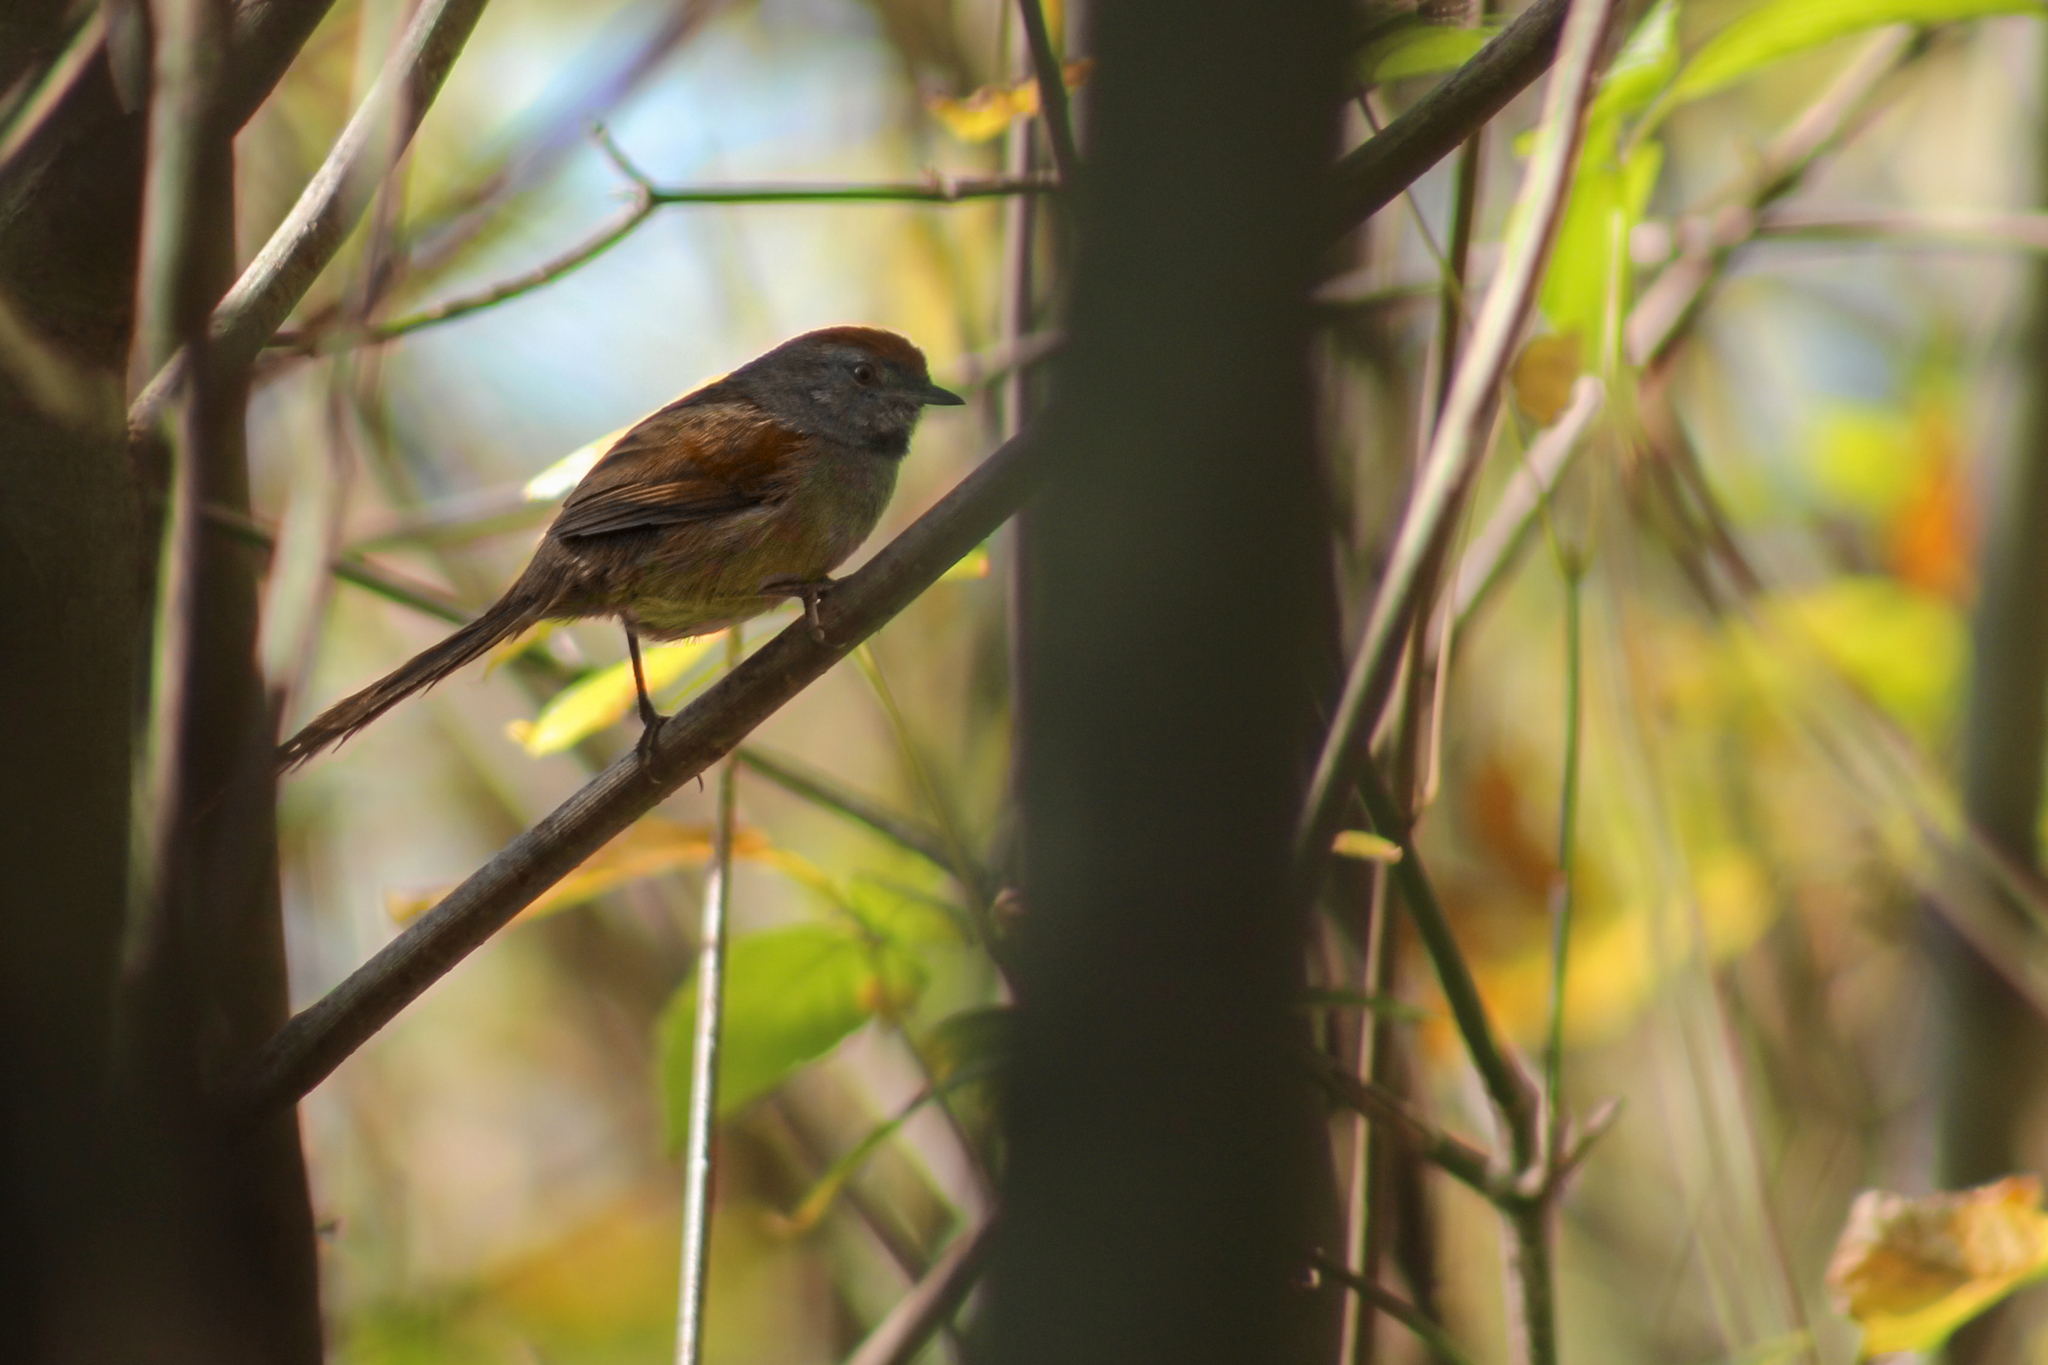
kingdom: Animalia
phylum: Chordata
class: Aves
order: Passeriformes
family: Furnariidae
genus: Synallaxis
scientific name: Synallaxis spixi
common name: Spix's spinetail
